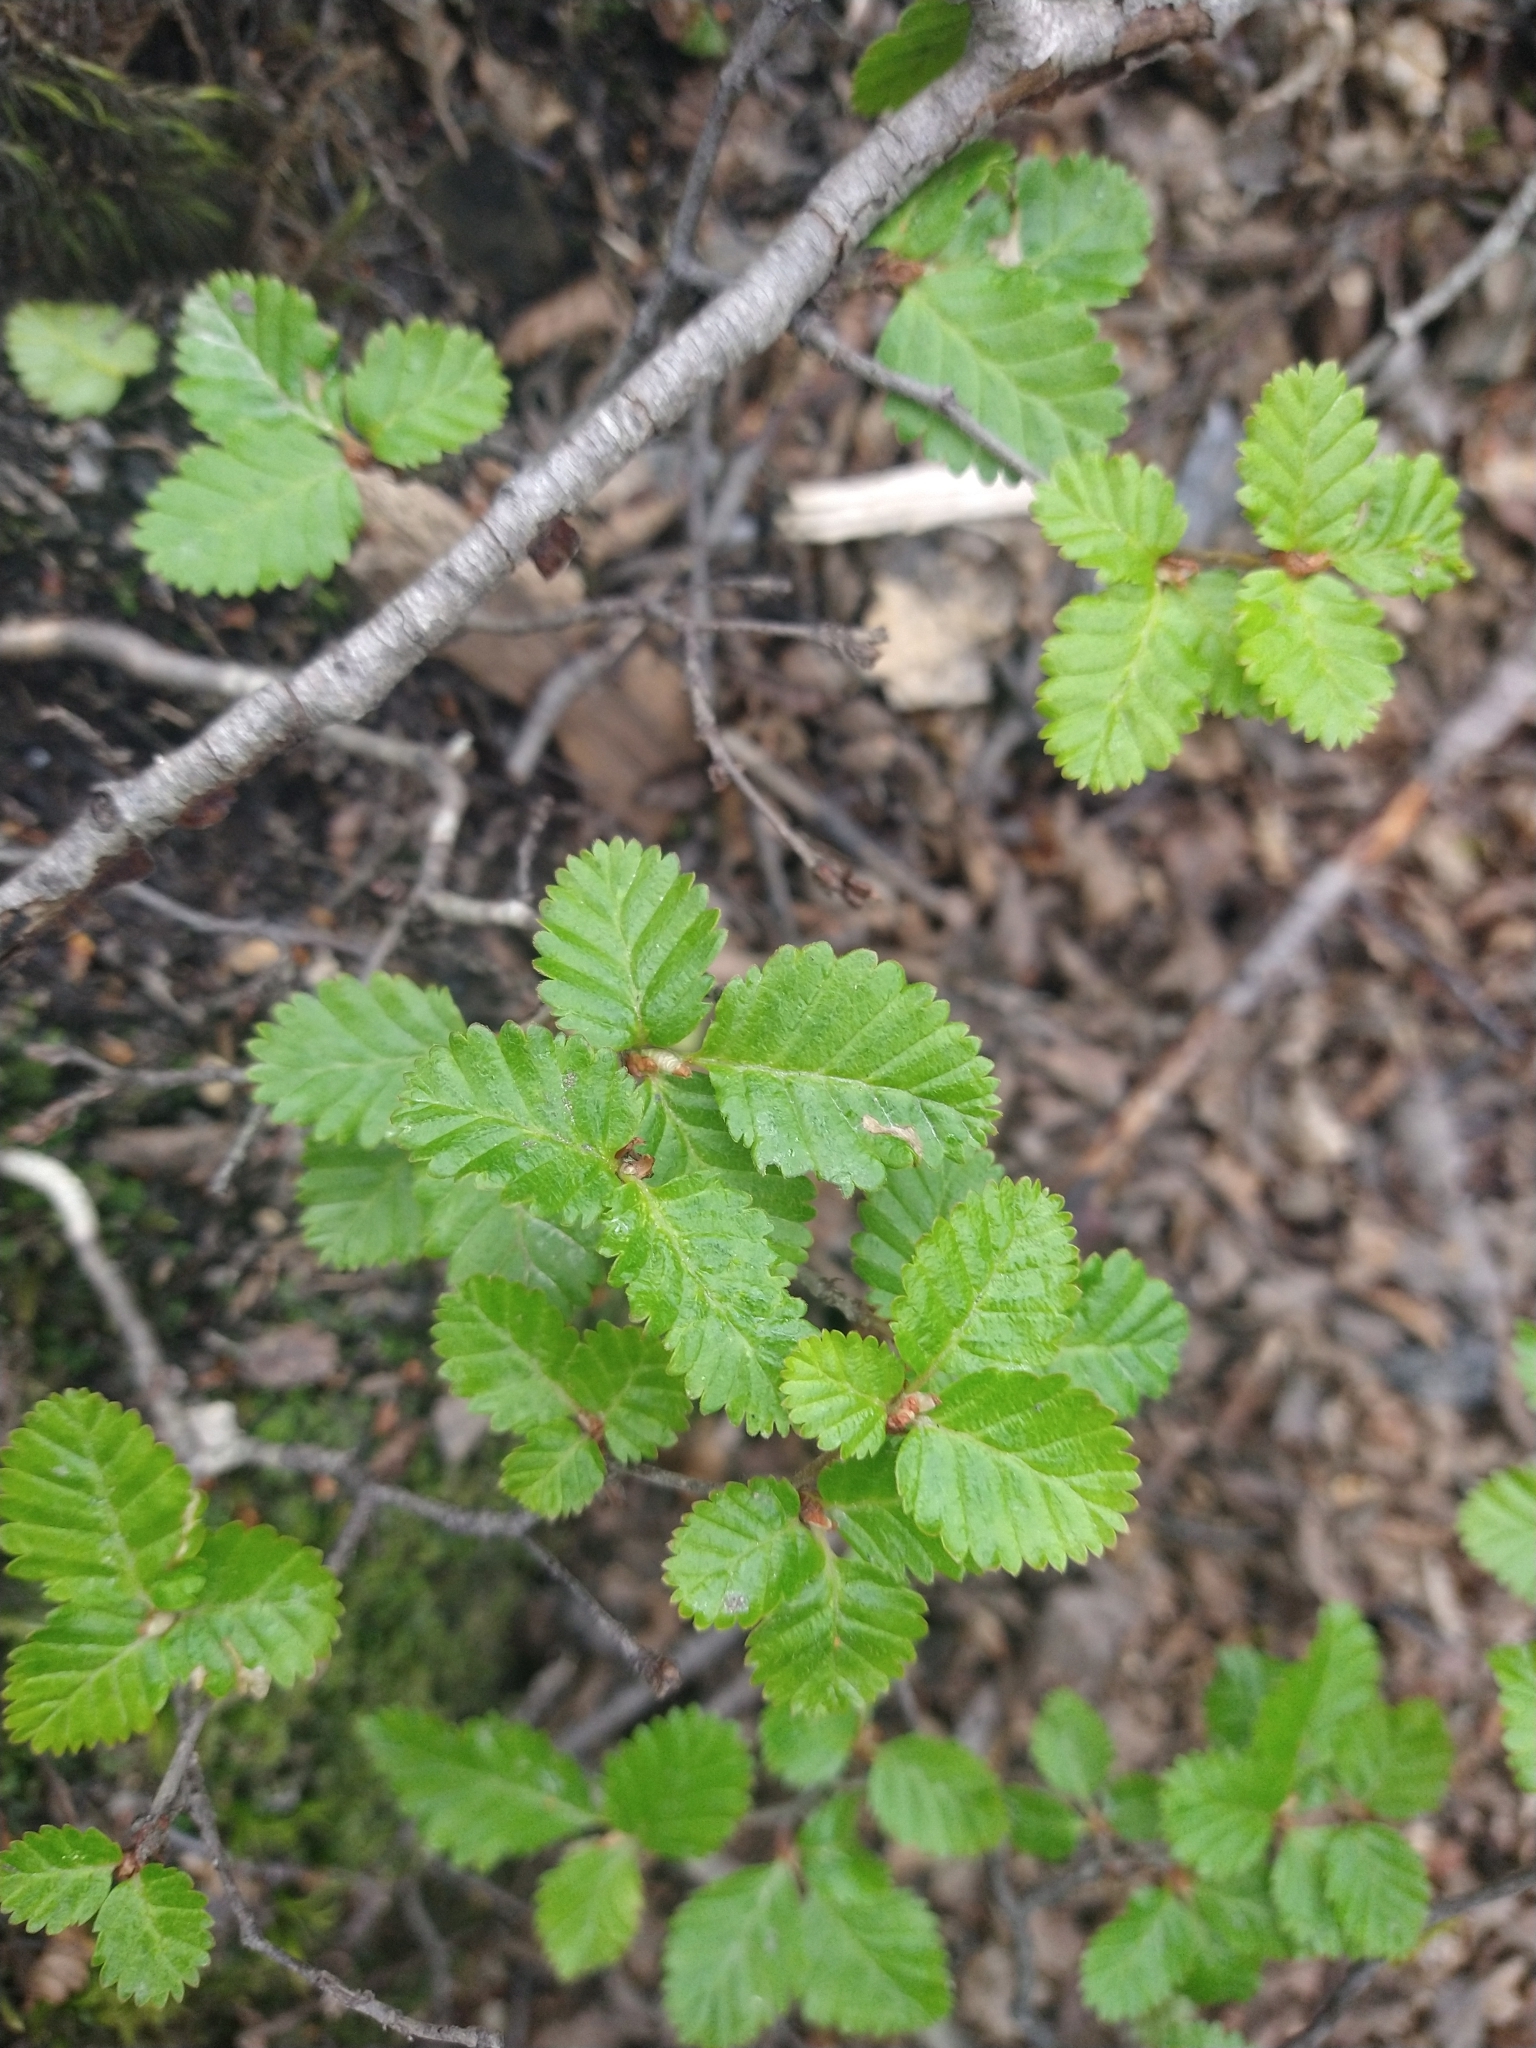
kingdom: Plantae
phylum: Tracheophyta
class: Magnoliopsida
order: Fagales
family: Nothofagaceae
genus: Nothofagus
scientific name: Nothofagus pumilio
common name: Lenga beech
